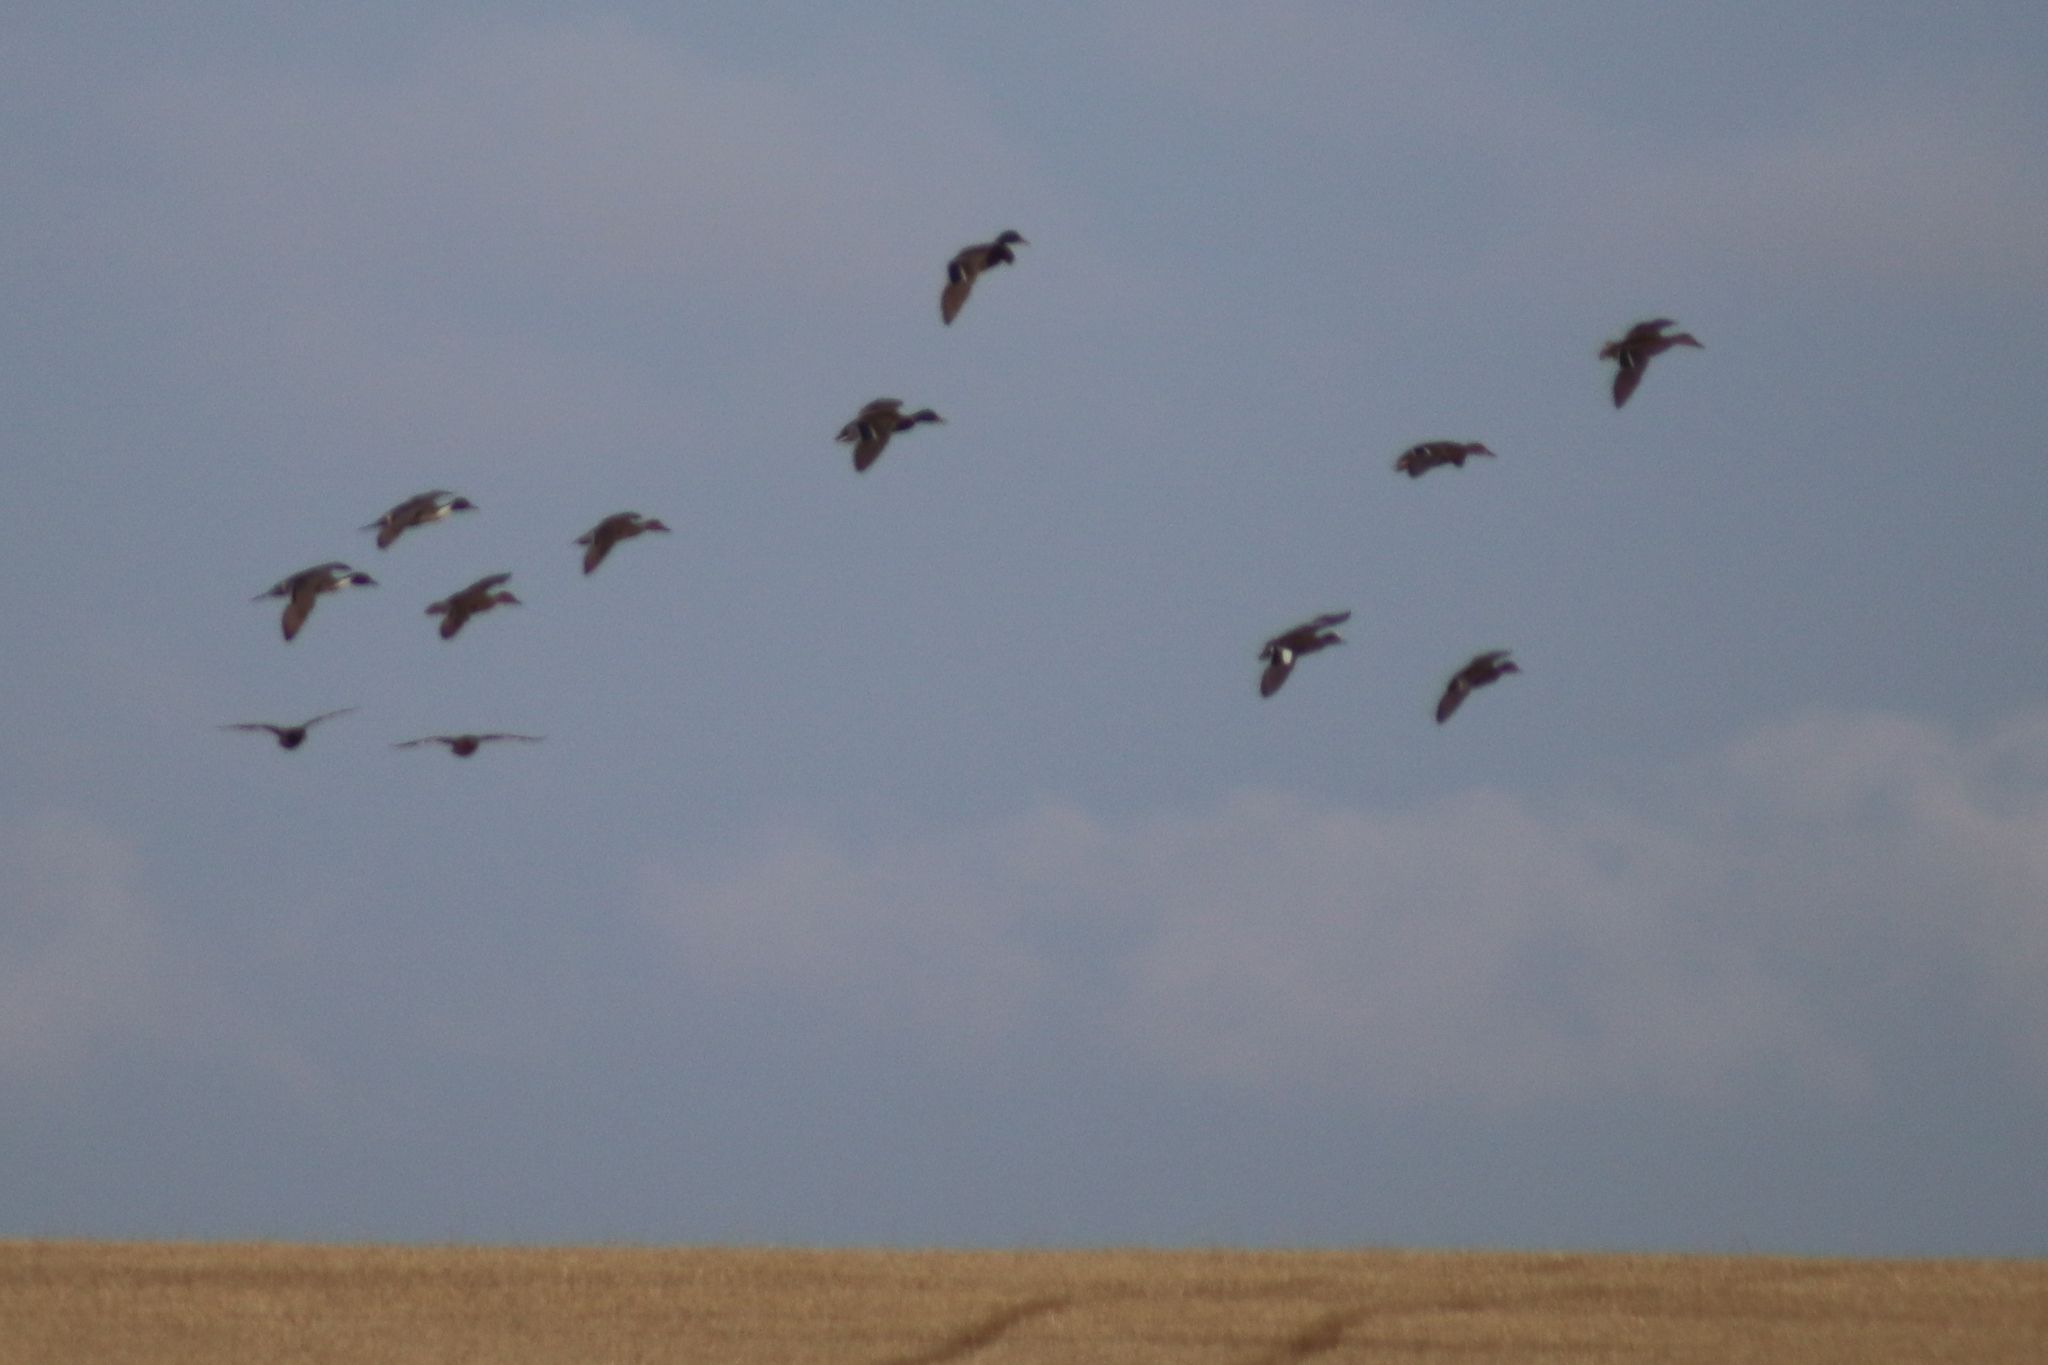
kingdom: Animalia
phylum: Chordata
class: Aves
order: Anseriformes
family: Anatidae
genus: Anas
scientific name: Anas platyrhynchos
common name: Mallard
